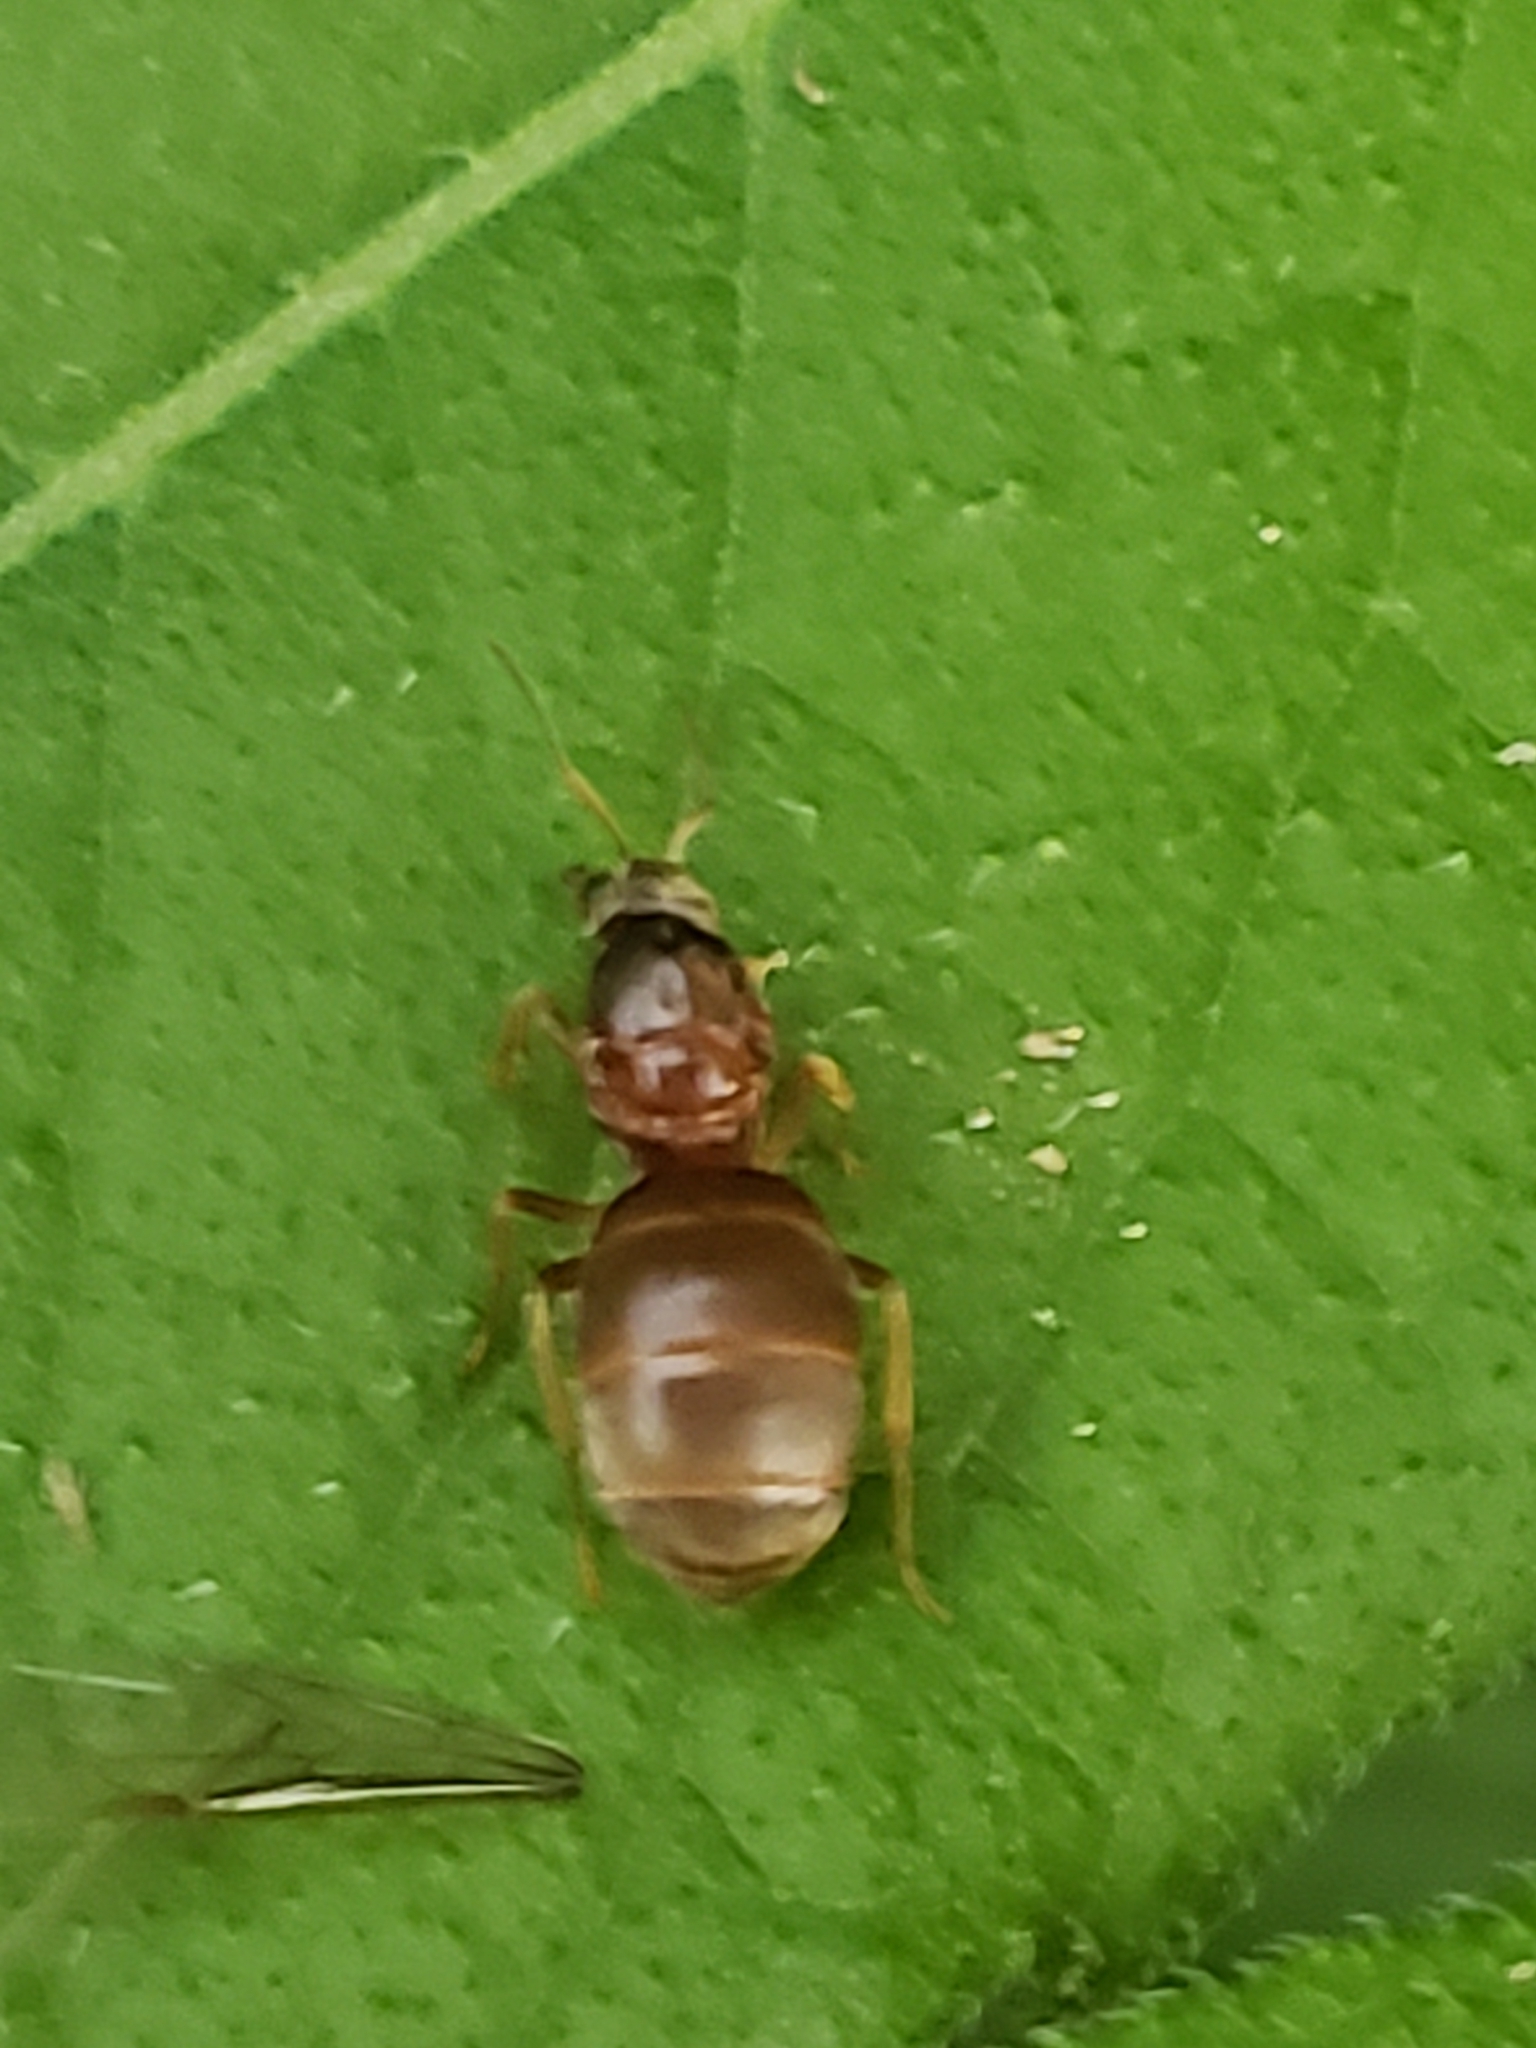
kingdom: Animalia
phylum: Arthropoda
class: Insecta
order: Hymenoptera
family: Formicidae
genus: Lasius
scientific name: Lasius neoniger
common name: Turfgrass ant
